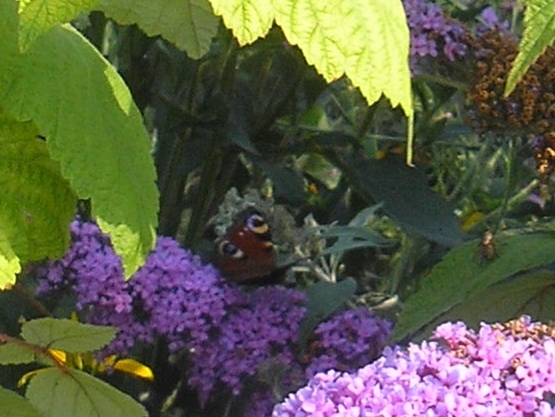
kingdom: Animalia
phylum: Arthropoda
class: Insecta
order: Lepidoptera
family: Nymphalidae
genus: Aglais
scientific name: Aglais io
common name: Peacock
